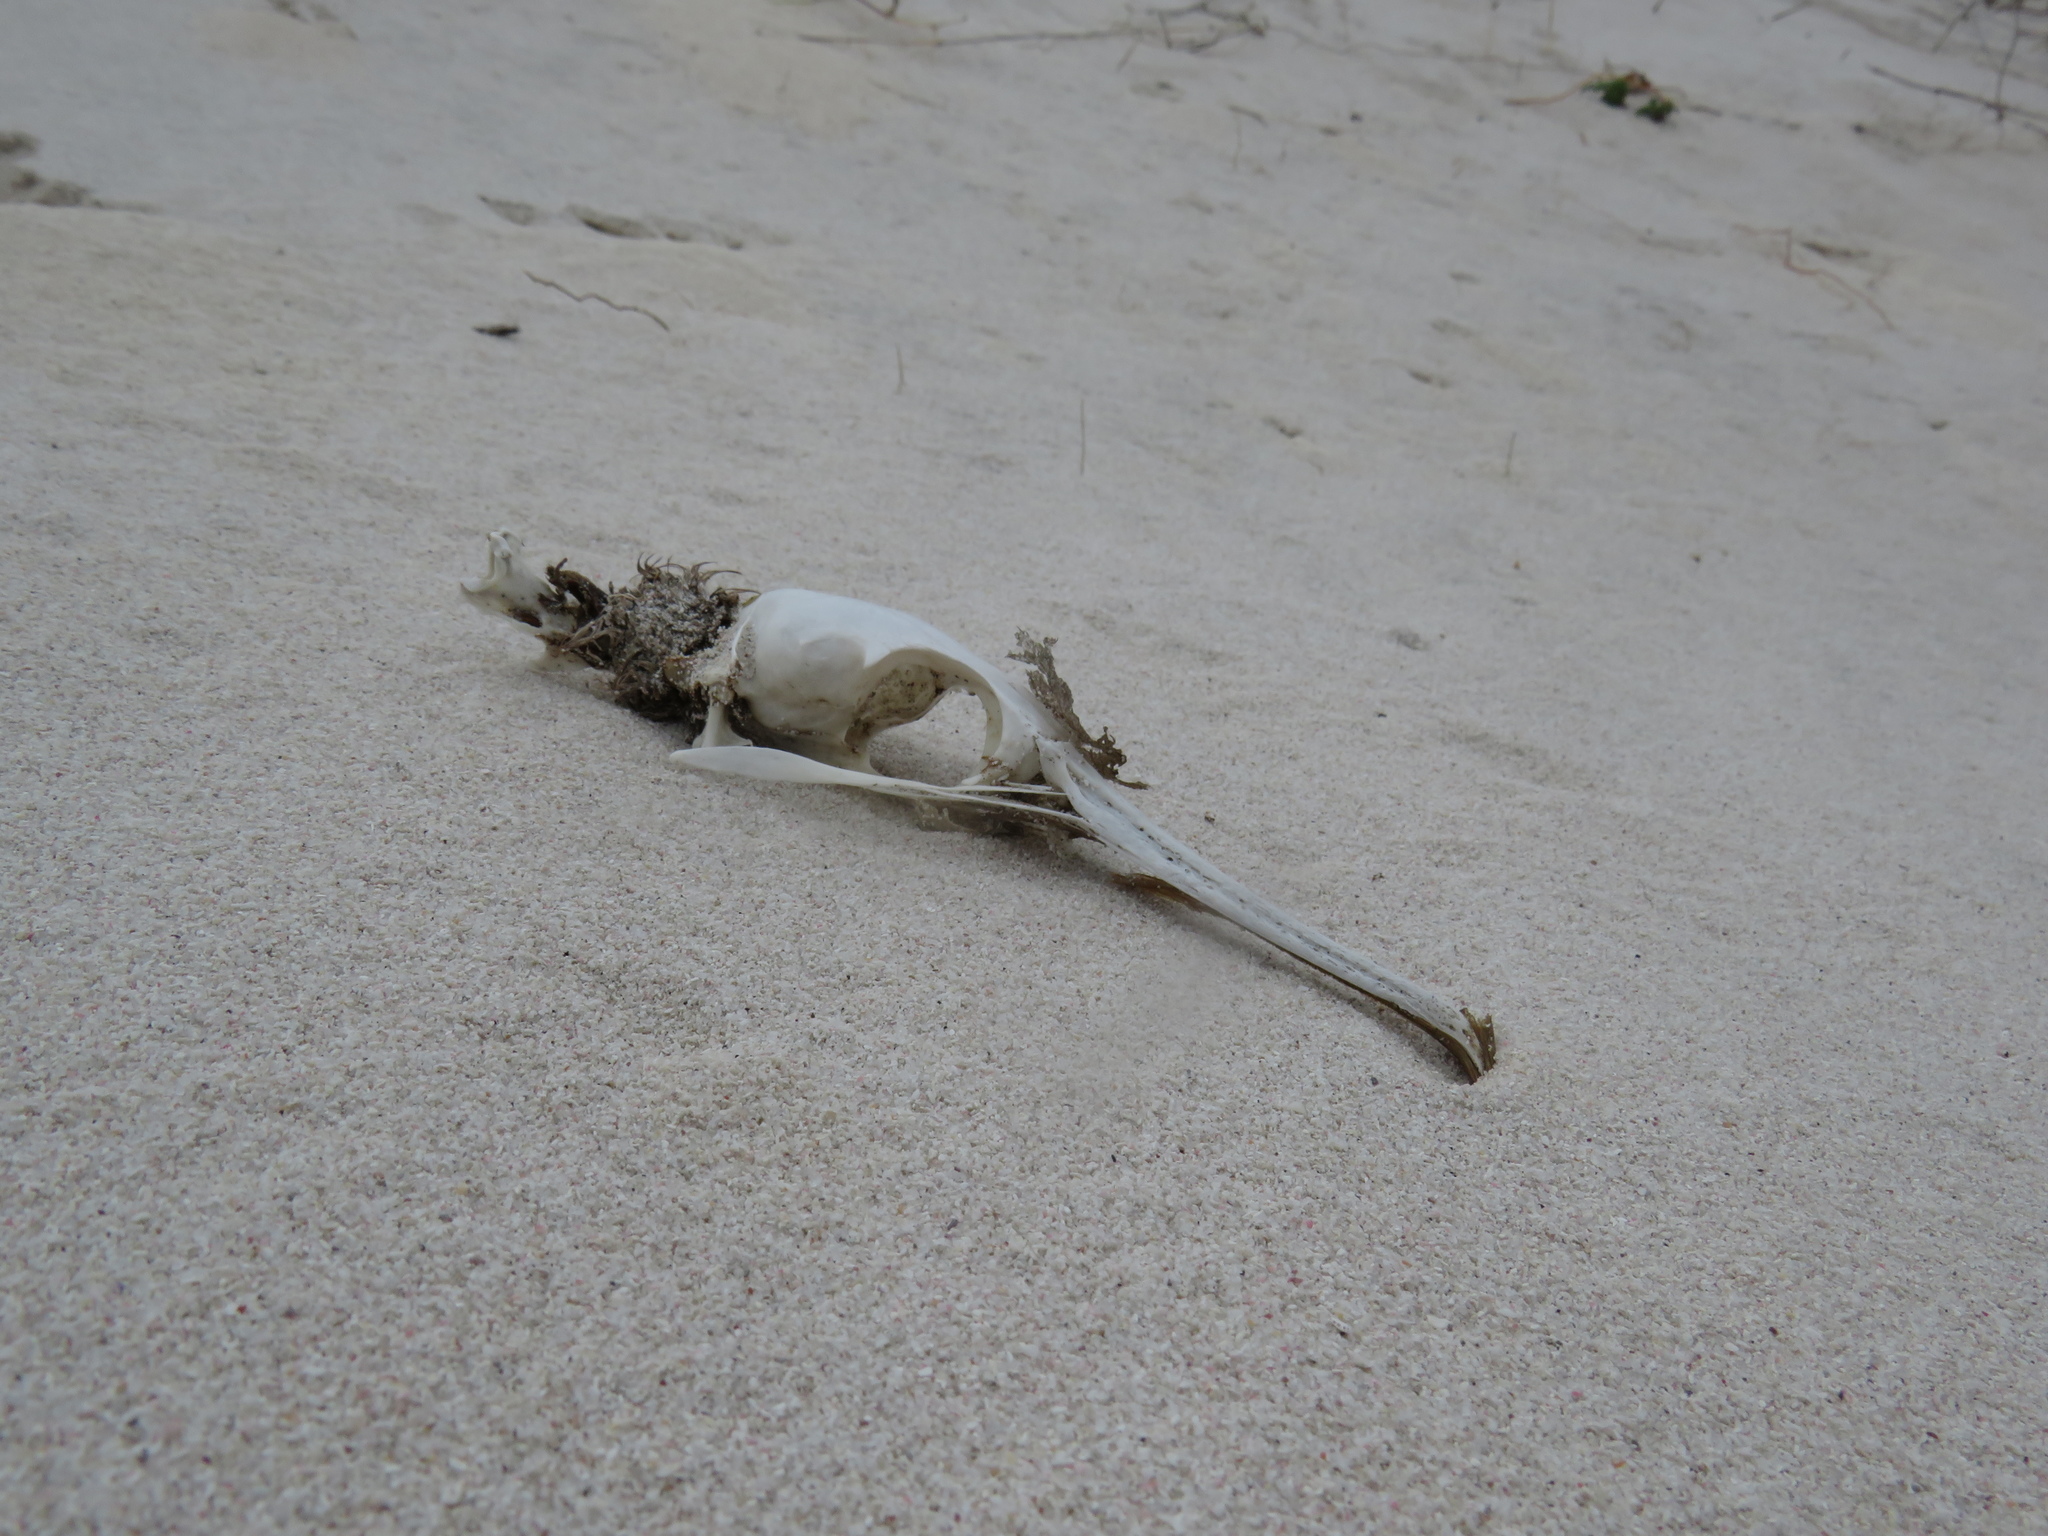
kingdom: Animalia
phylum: Chordata
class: Aves
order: Suliformes
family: Phalacrocoracidae
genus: Phalacrocorax
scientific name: Phalacrocorax capensis
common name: Cape cormorant
